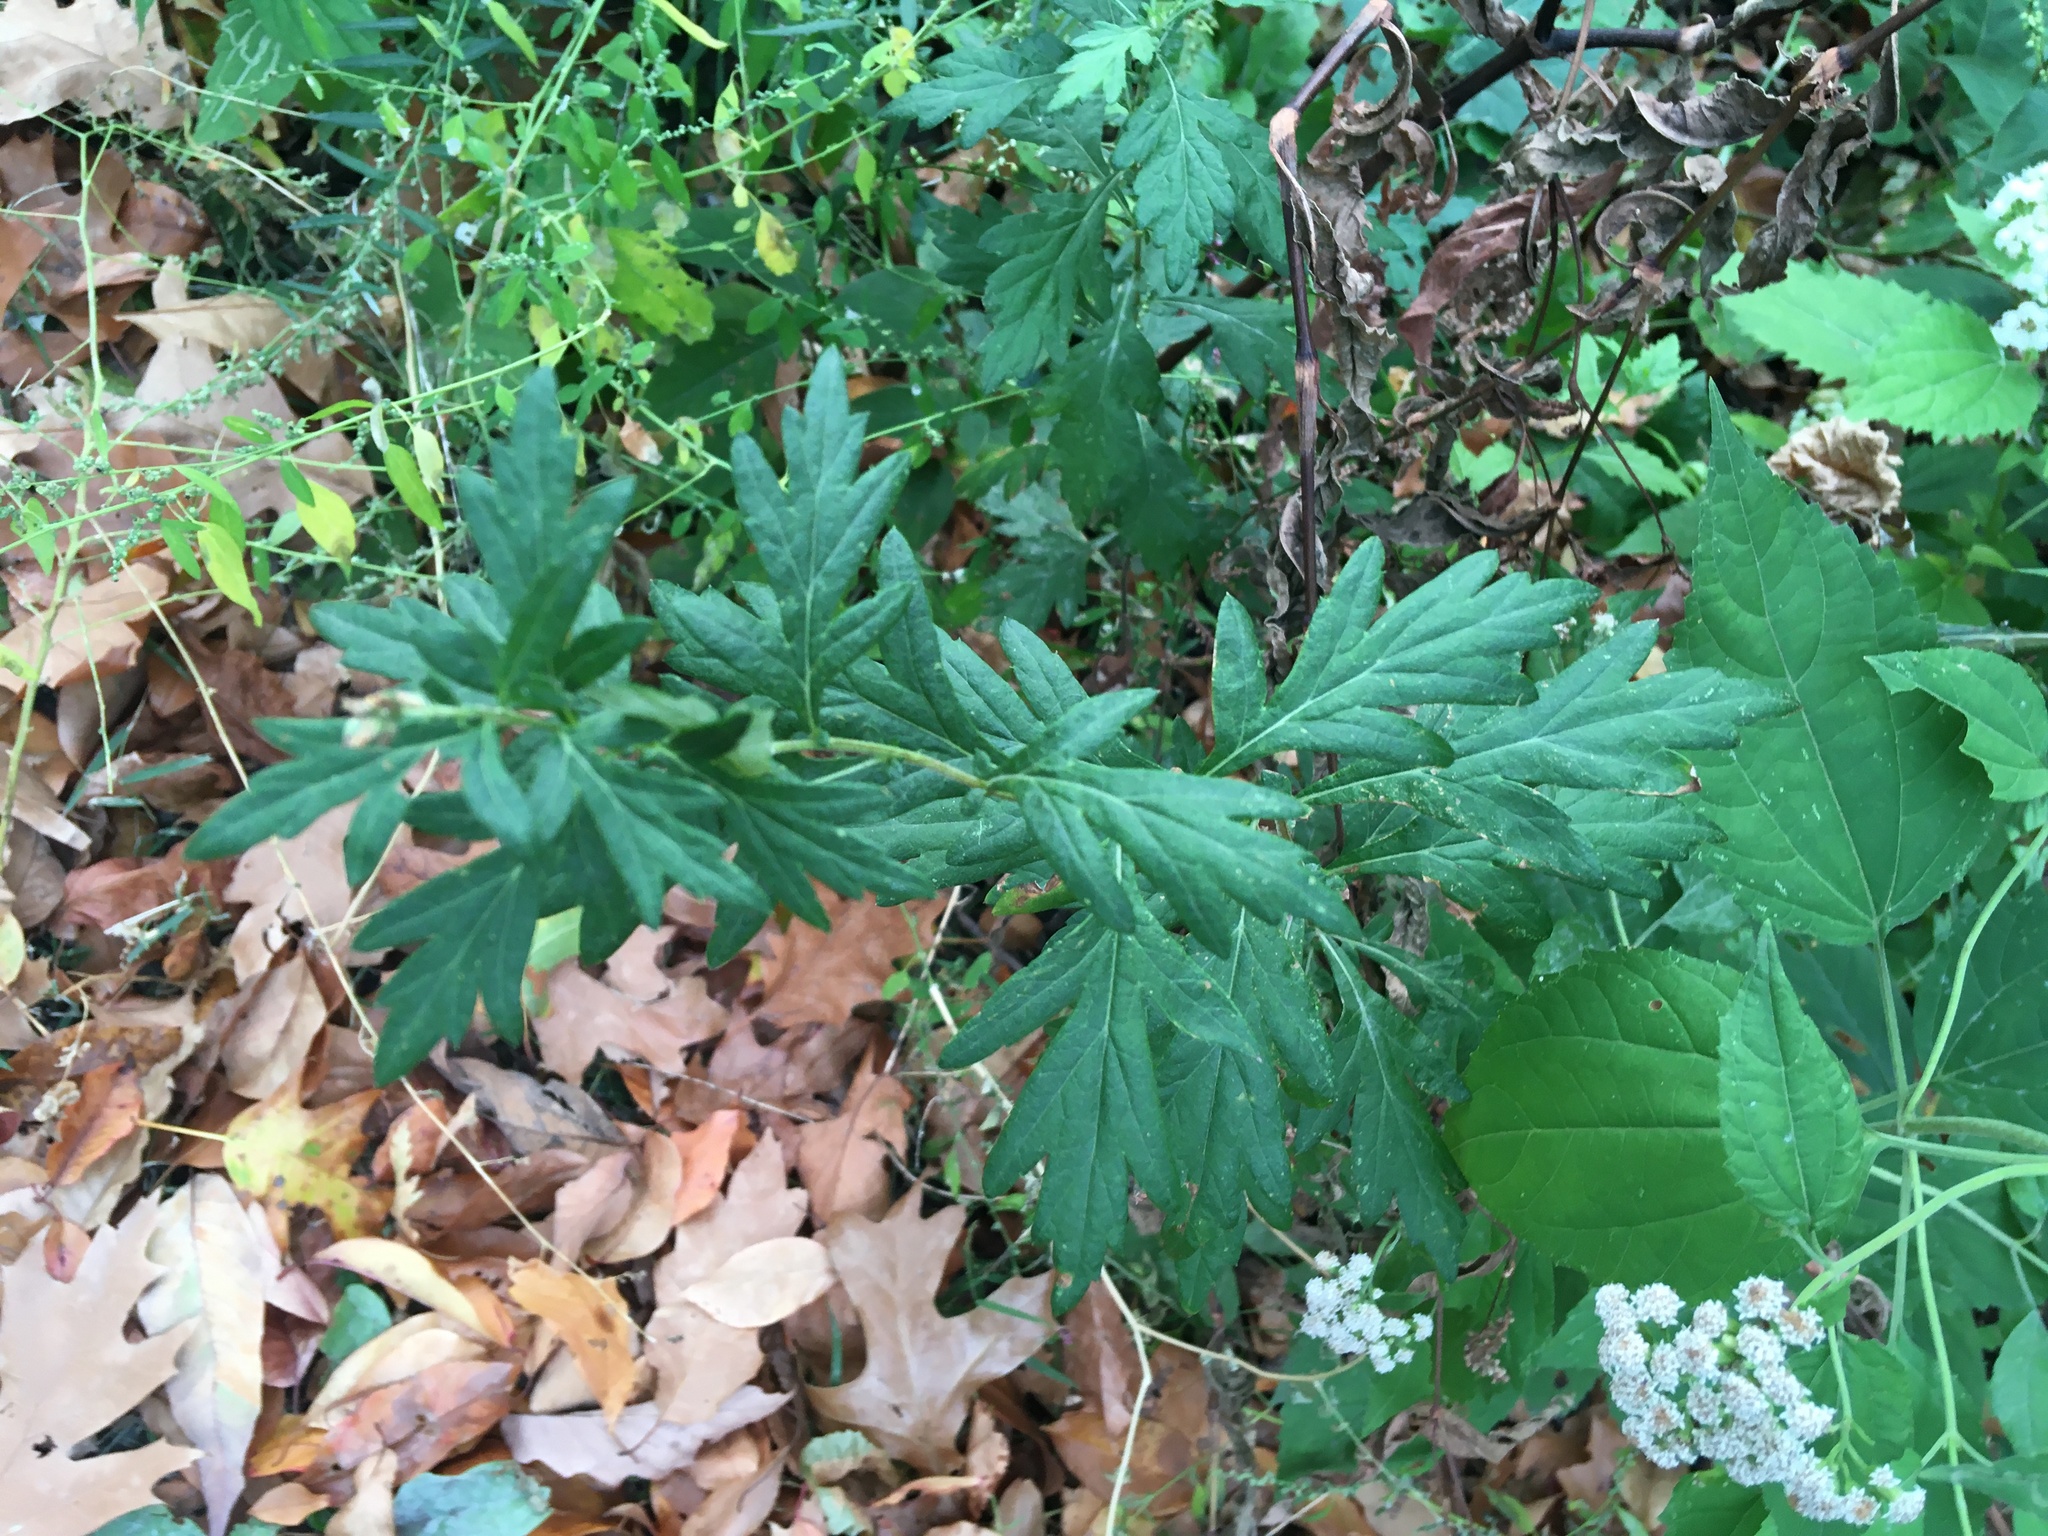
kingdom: Plantae
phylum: Tracheophyta
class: Magnoliopsida
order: Asterales
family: Asteraceae
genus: Artemisia
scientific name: Artemisia vulgaris
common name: Mugwort
